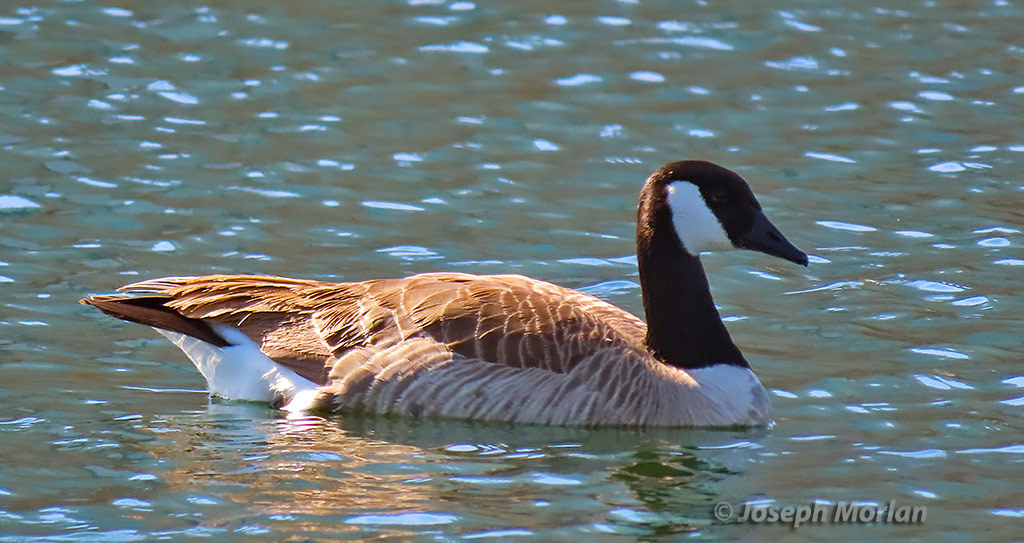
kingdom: Animalia
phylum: Chordata
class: Aves
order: Anseriformes
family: Anatidae
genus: Branta
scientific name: Branta canadensis
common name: Canada goose
